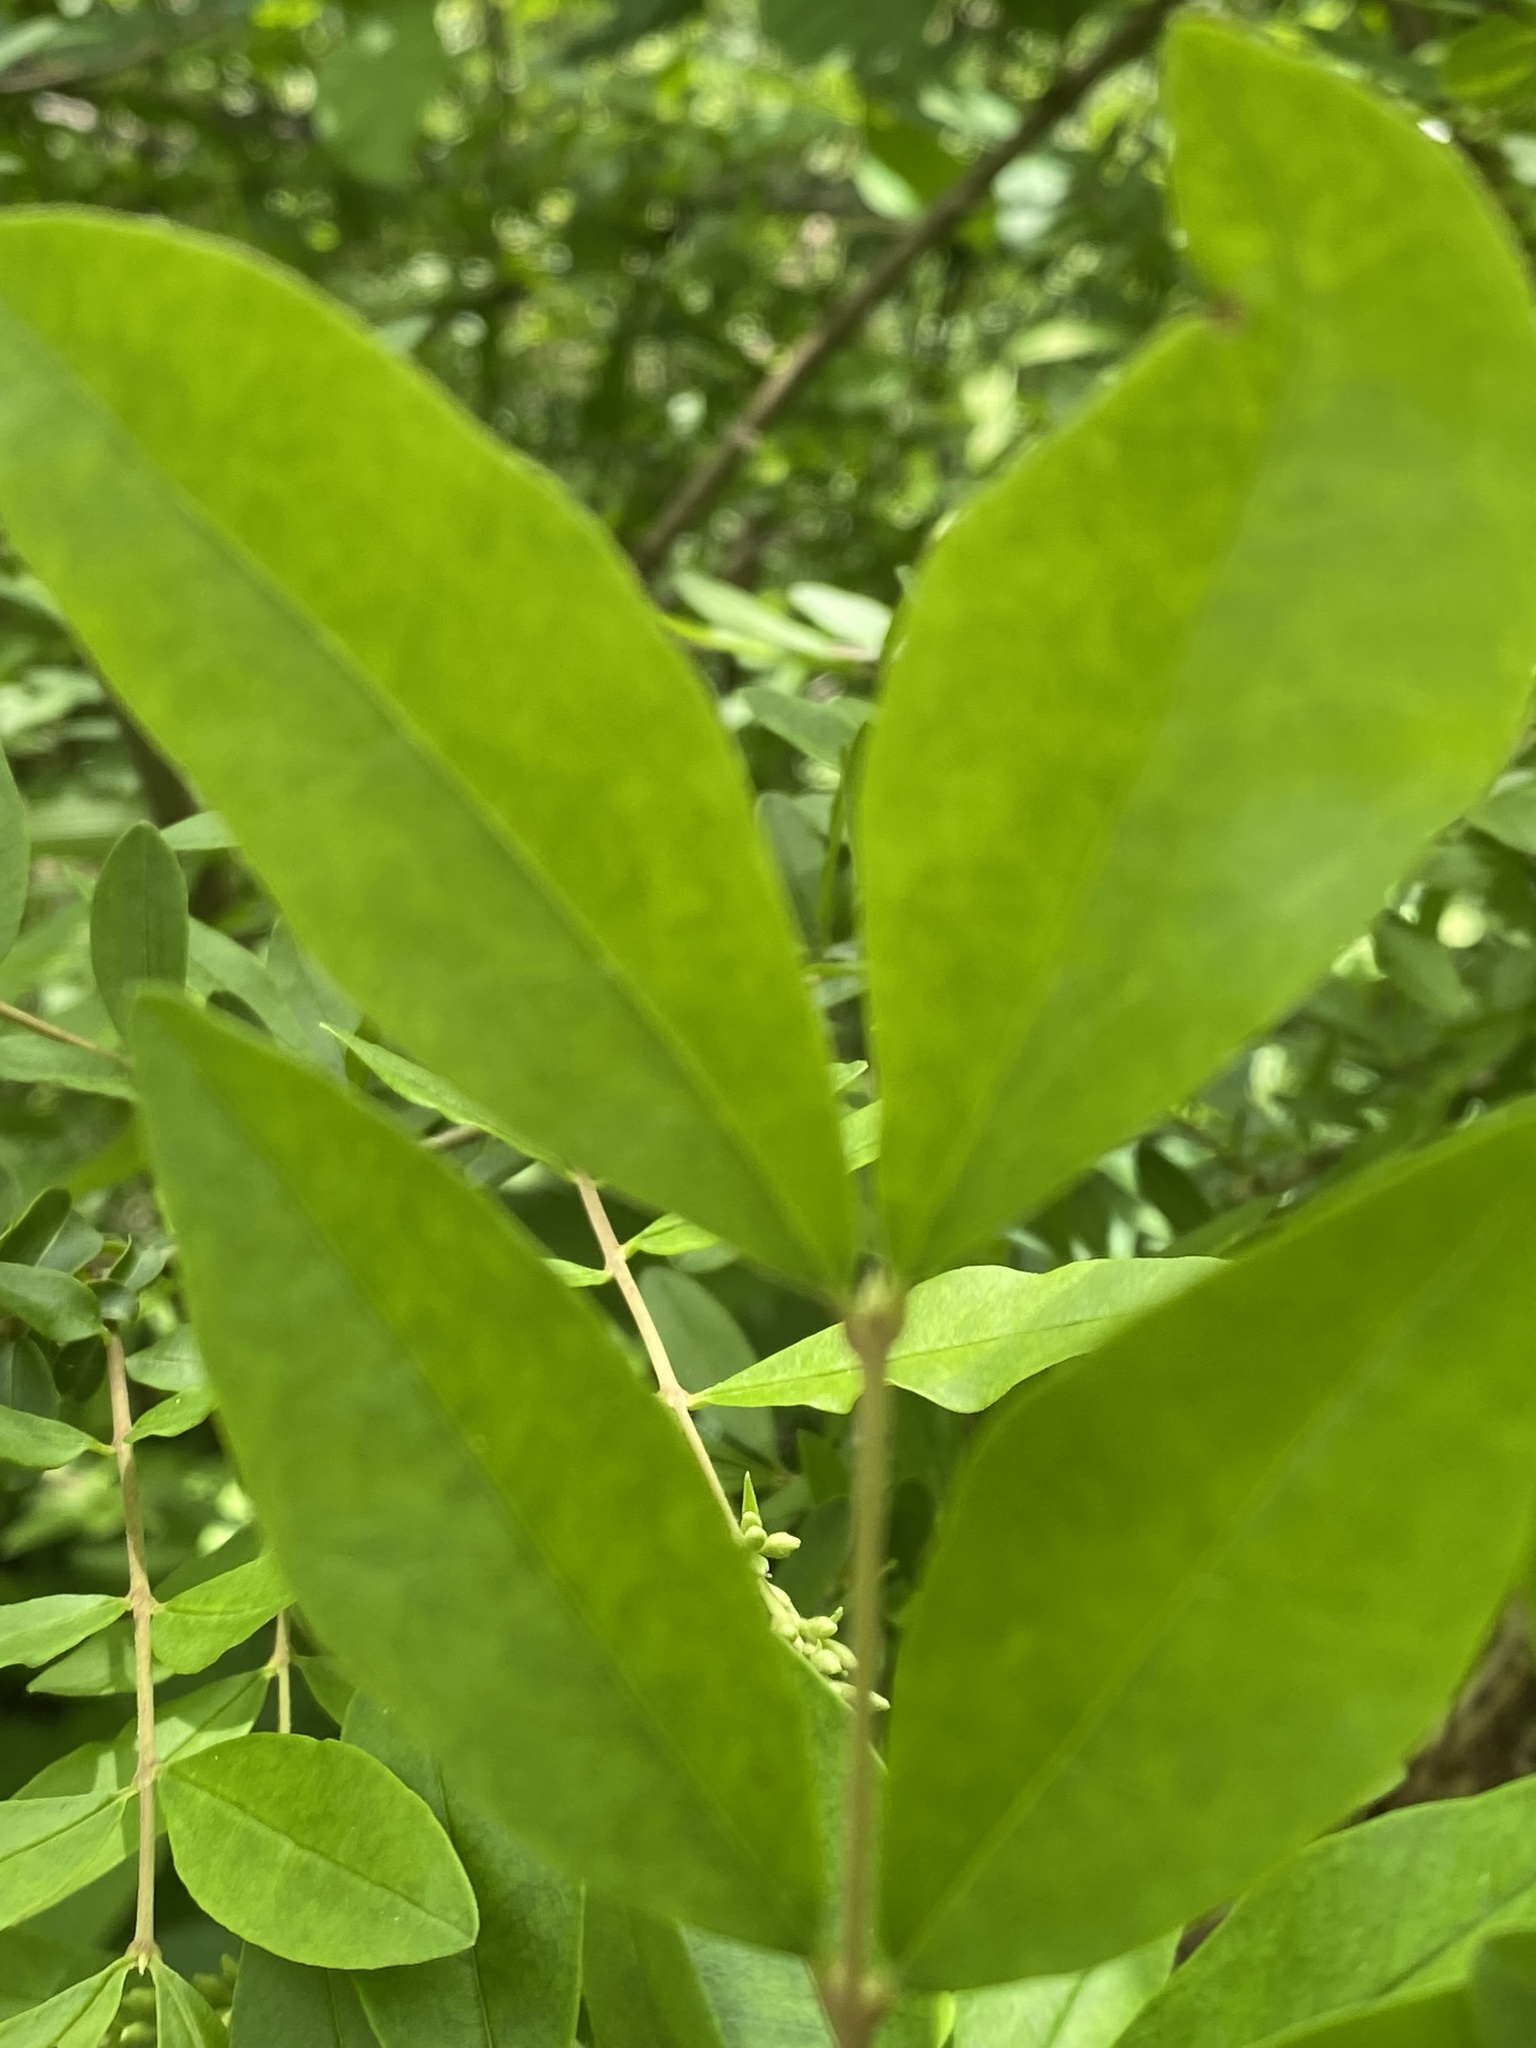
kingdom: Plantae
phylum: Tracheophyta
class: Magnoliopsida
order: Lamiales
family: Oleaceae
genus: Ligustrum
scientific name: Ligustrum obtusifolium
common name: Border privet
